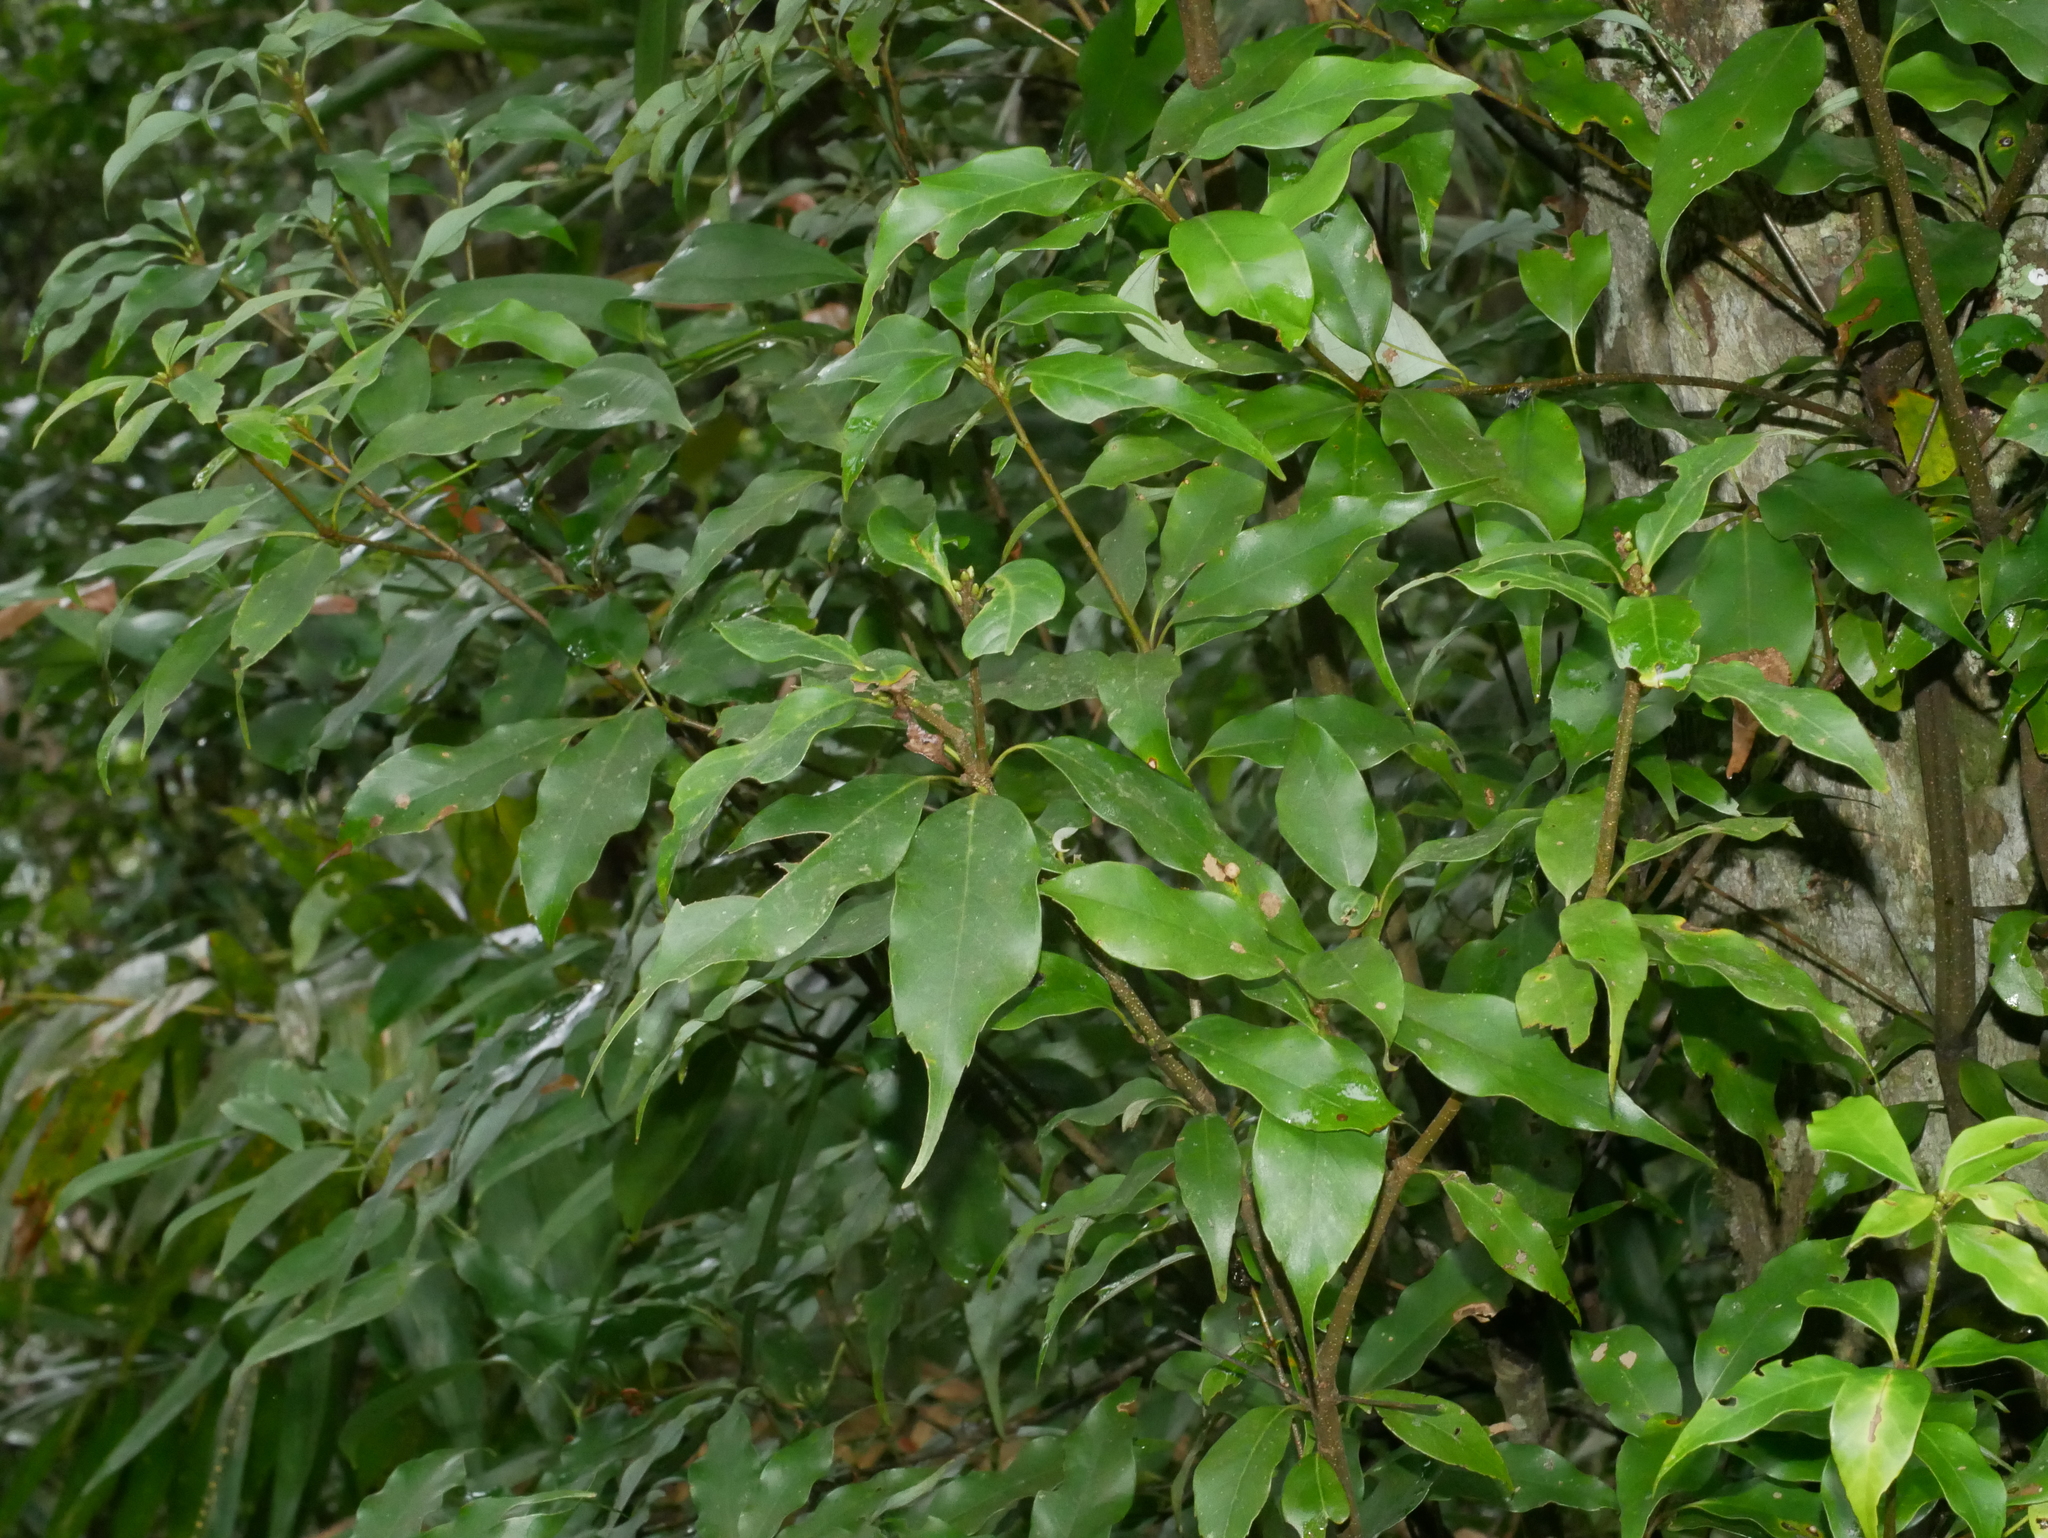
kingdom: Plantae
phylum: Tracheophyta
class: Magnoliopsida
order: Fagales
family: Fagaceae
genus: Quercus
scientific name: Quercus longinux
